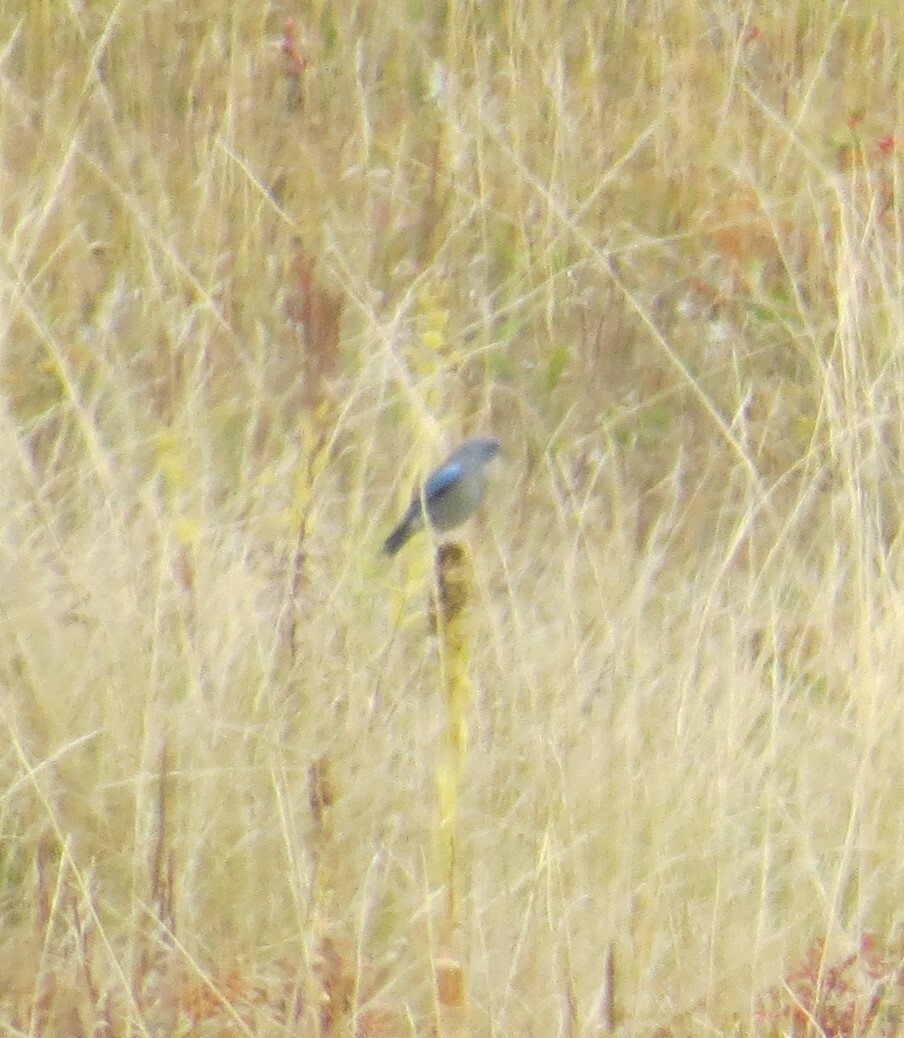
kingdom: Animalia
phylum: Chordata
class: Aves
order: Passeriformes
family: Turdidae
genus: Sialia
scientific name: Sialia currucoides
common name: Mountain bluebird
